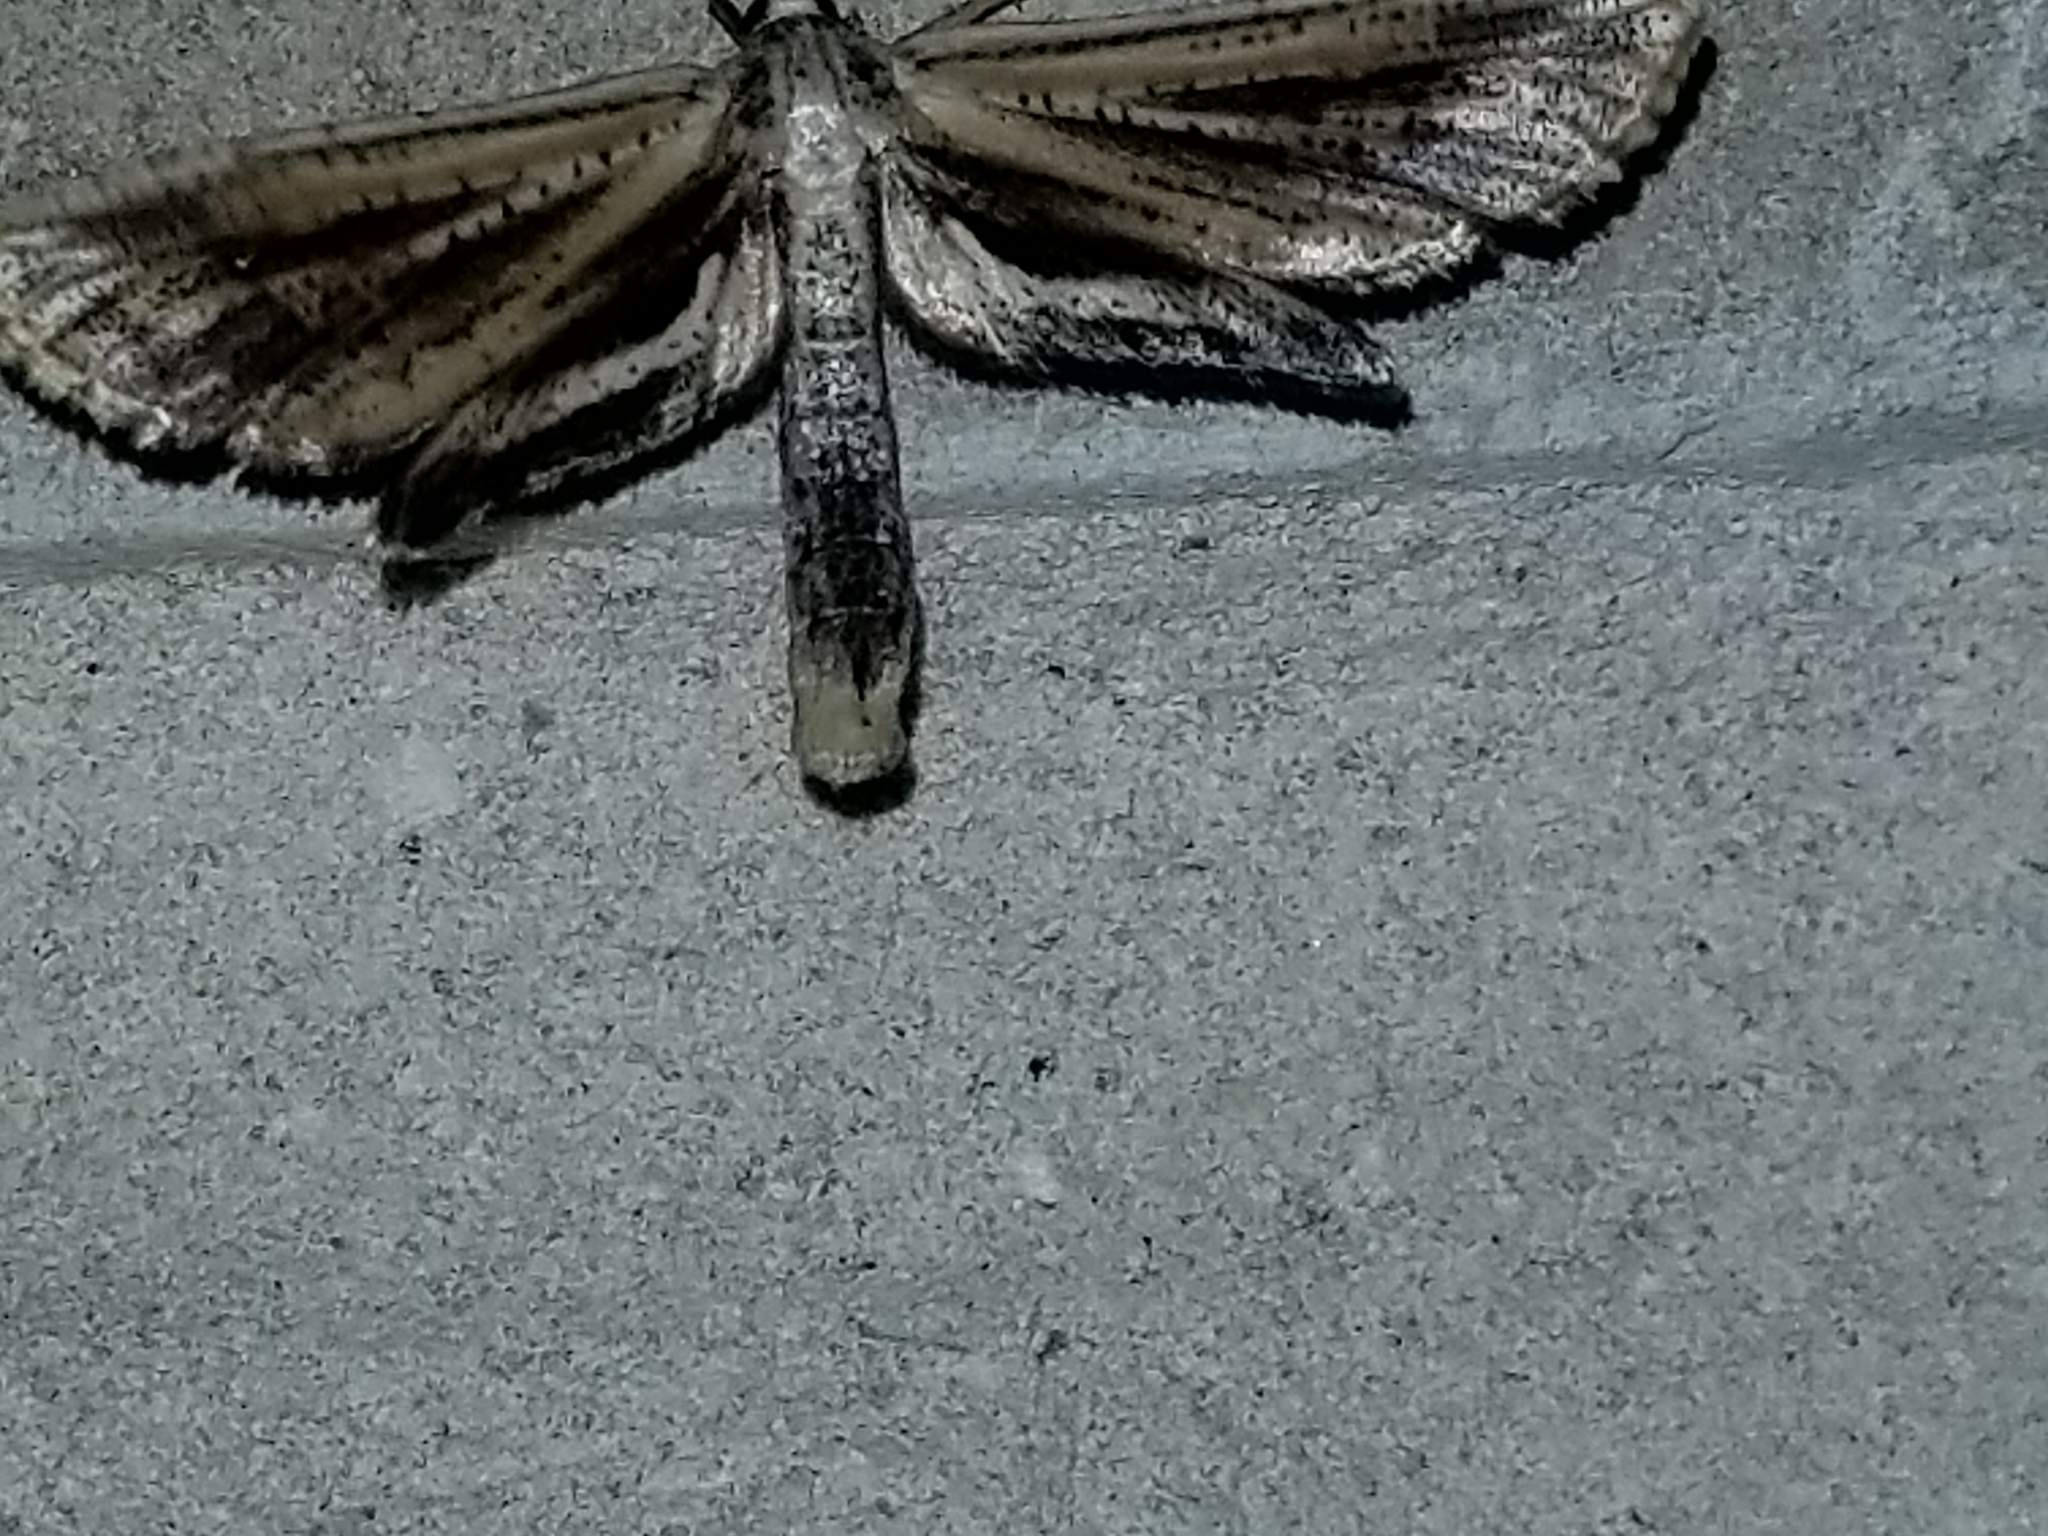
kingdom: Animalia
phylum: Arthropoda
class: Insecta
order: Lepidoptera
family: Thyrididae
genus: Meskea
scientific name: Meskea dyspteraria
